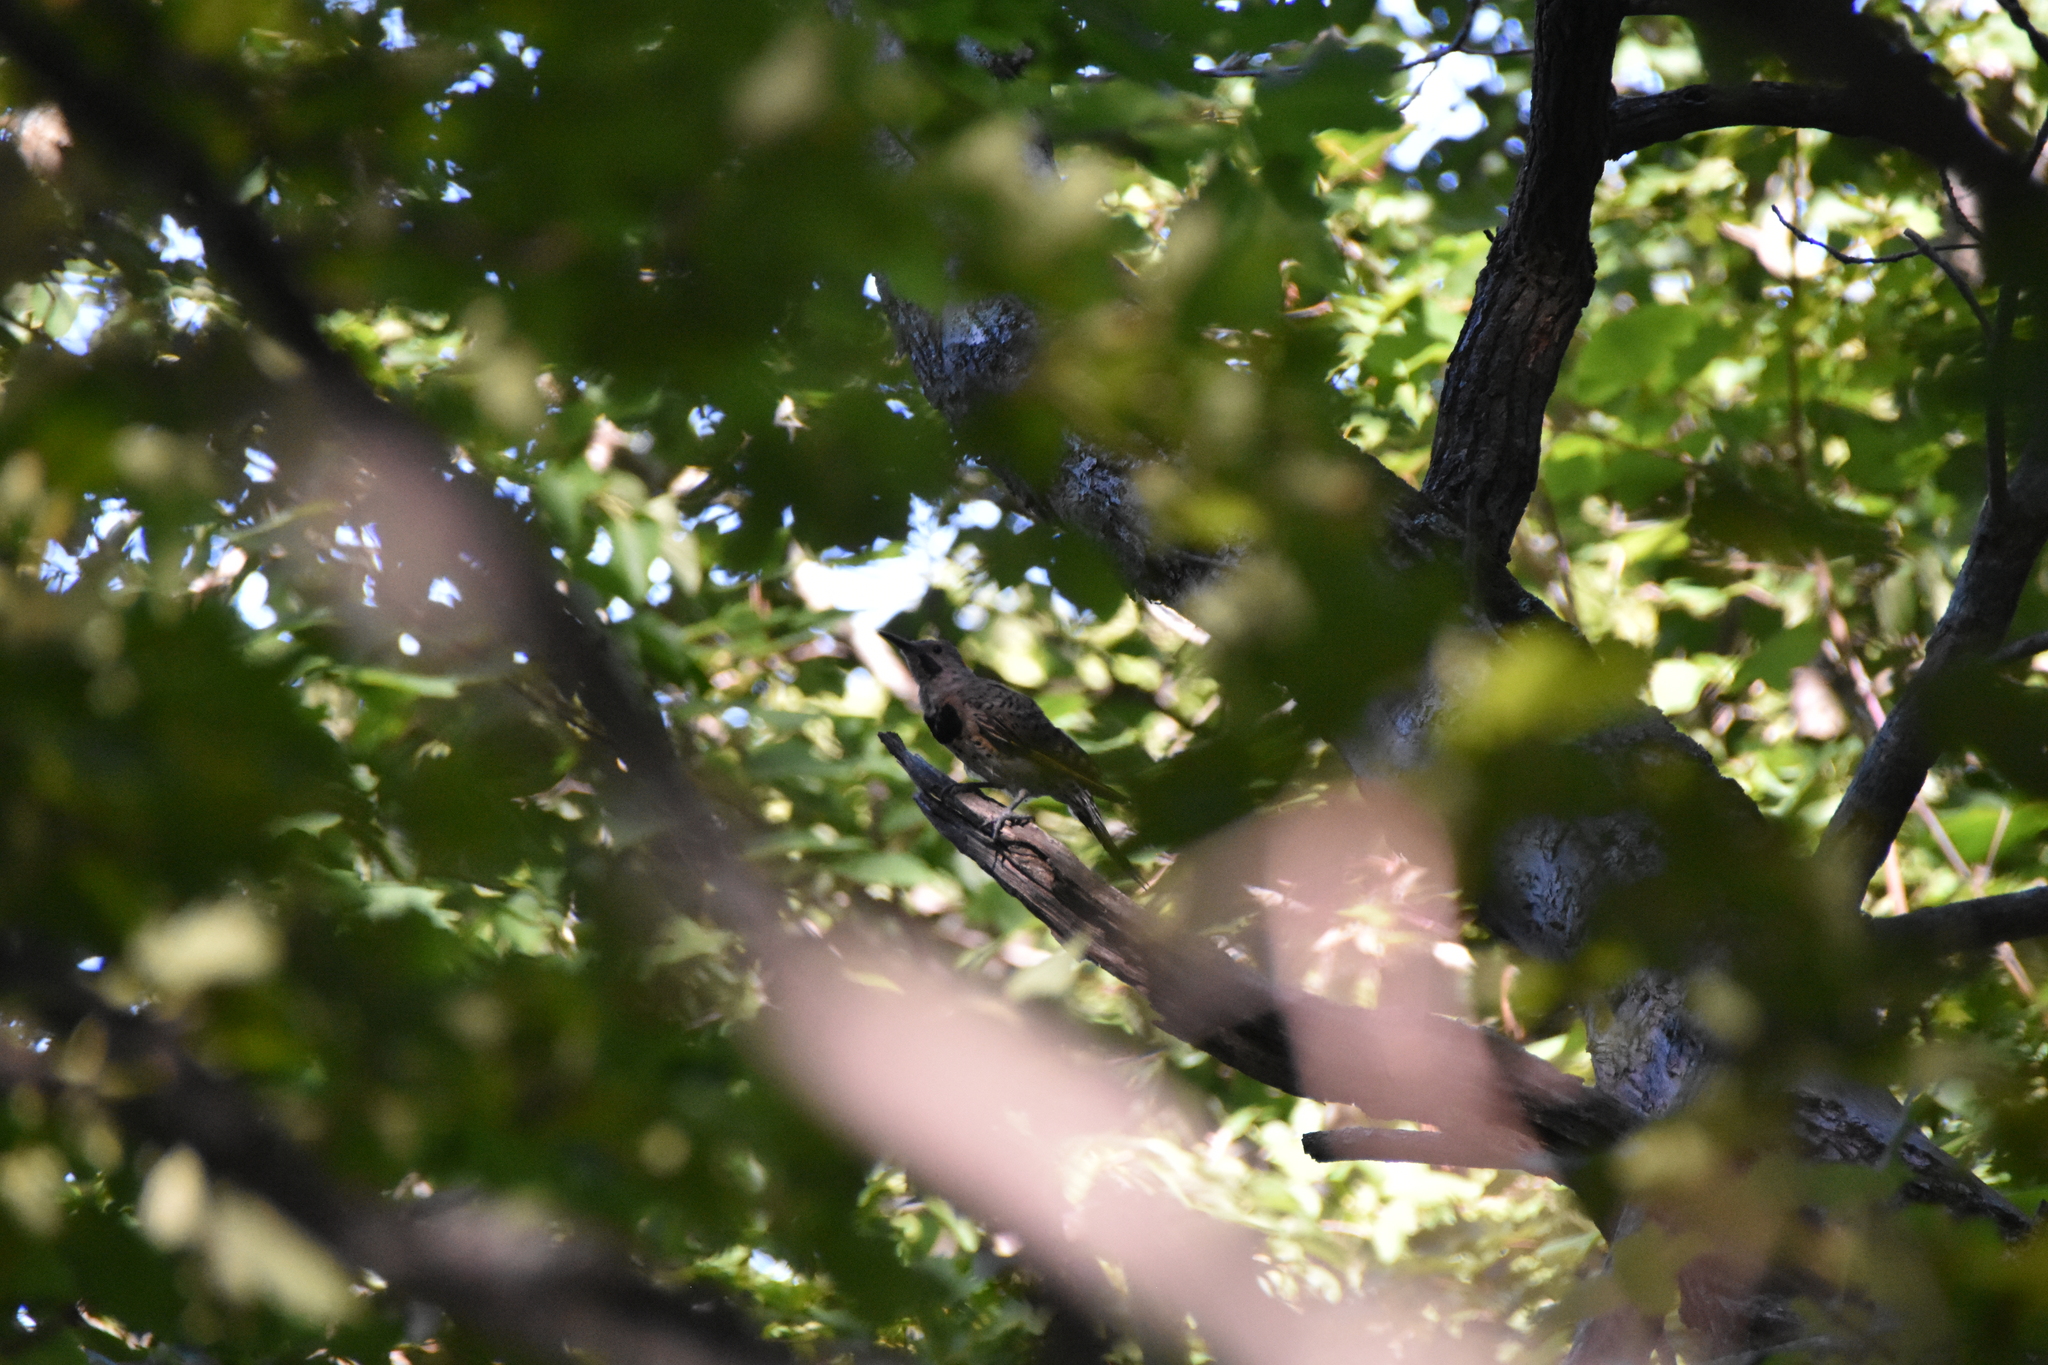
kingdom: Animalia
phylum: Chordata
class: Aves
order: Piciformes
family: Picidae
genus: Colaptes
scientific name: Colaptes auratus
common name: Northern flicker
